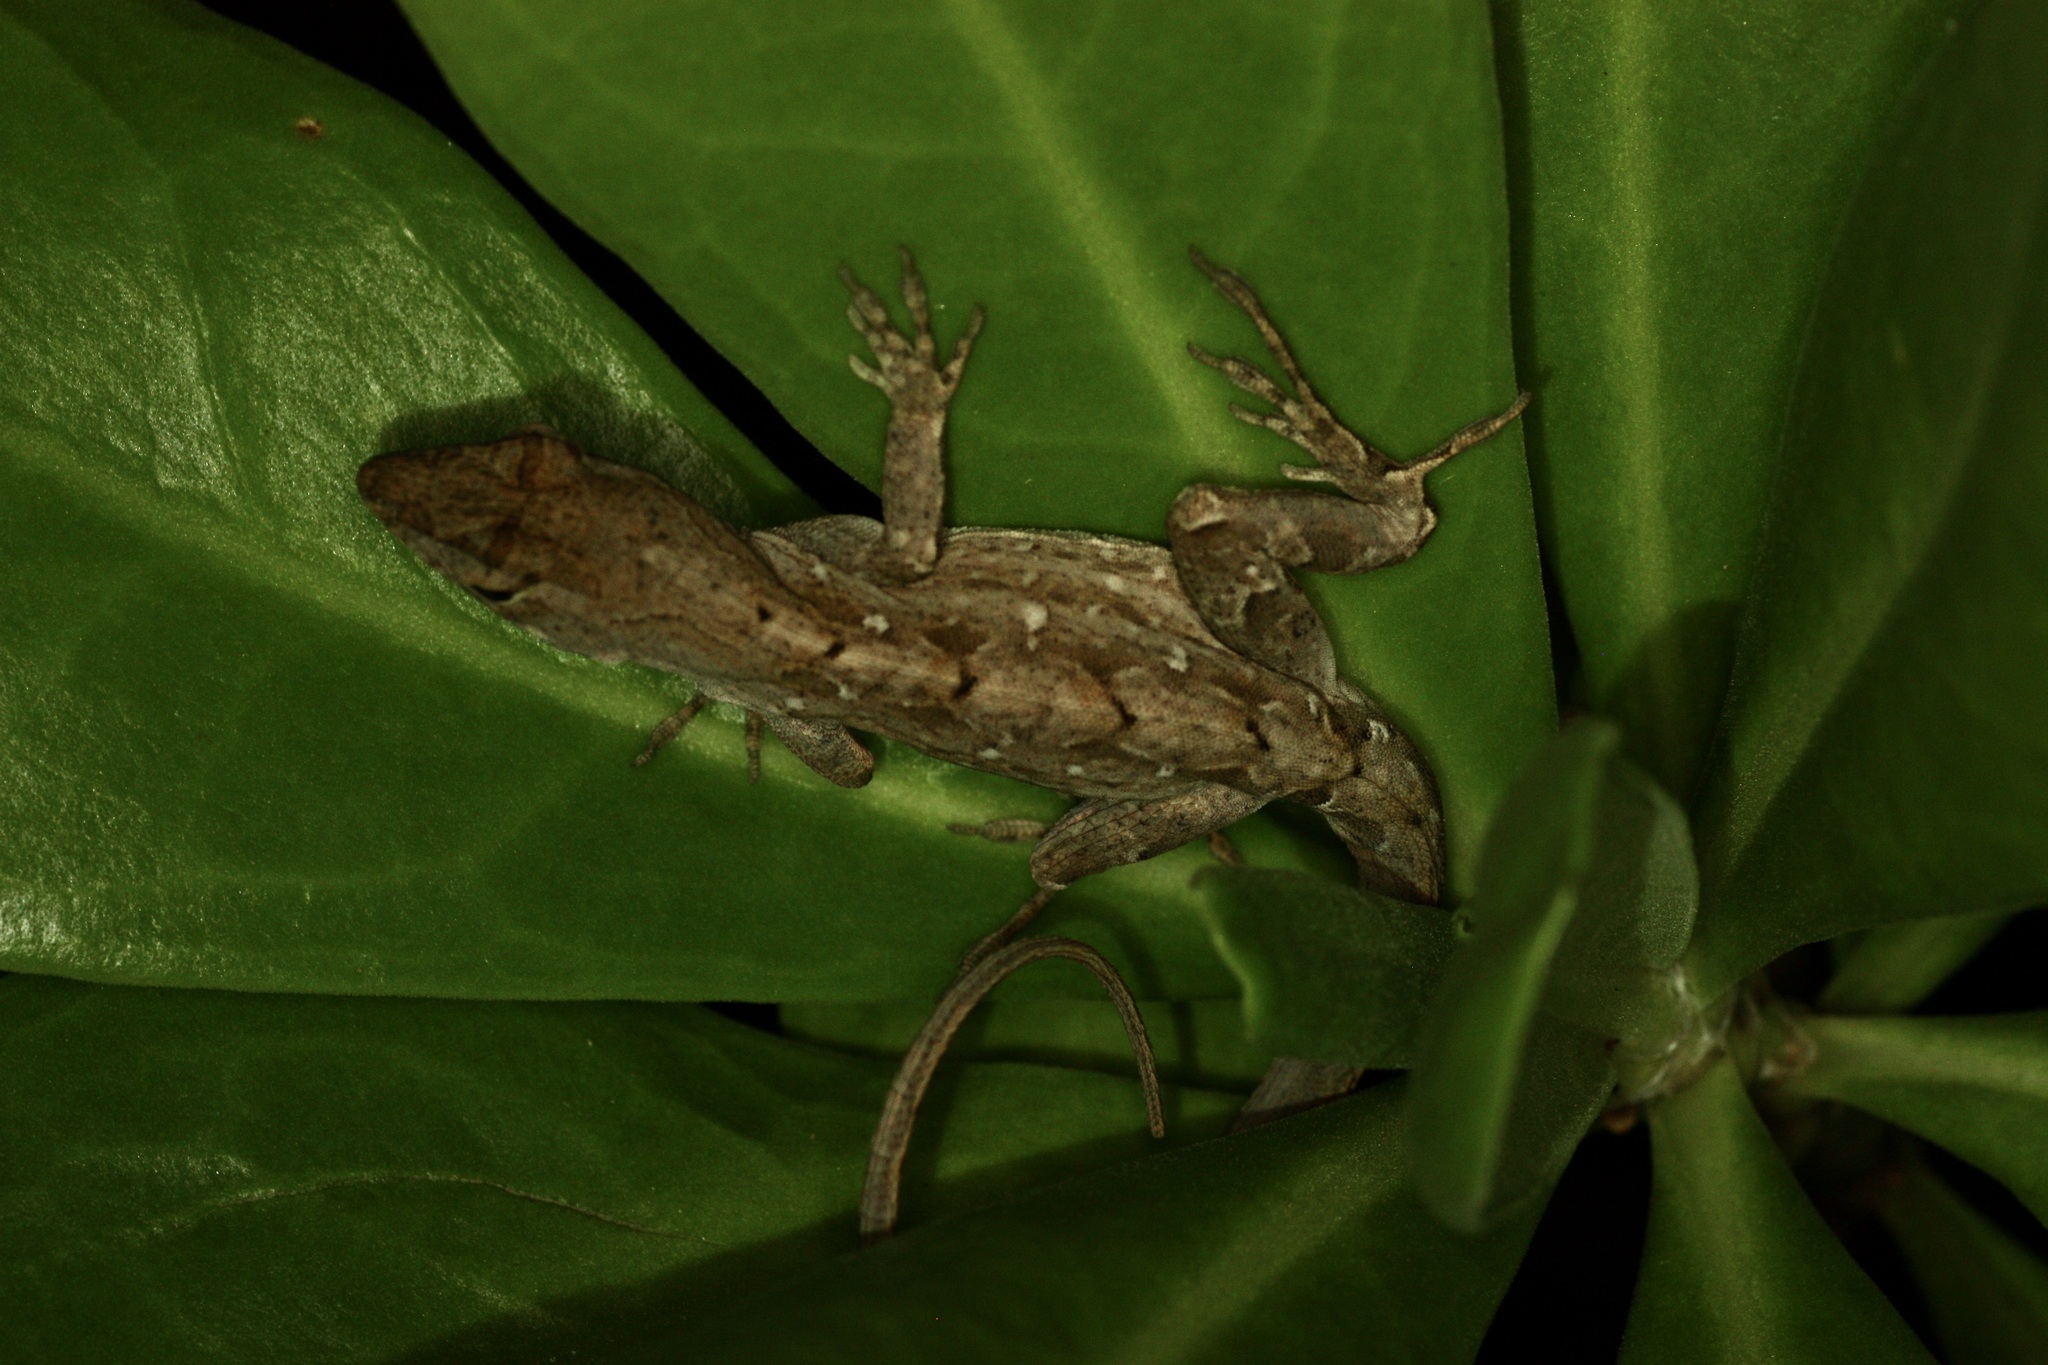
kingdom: Animalia
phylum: Chordata
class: Squamata
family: Dactyloidae
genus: Anolis
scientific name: Anolis sagrei
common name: Brown anole
